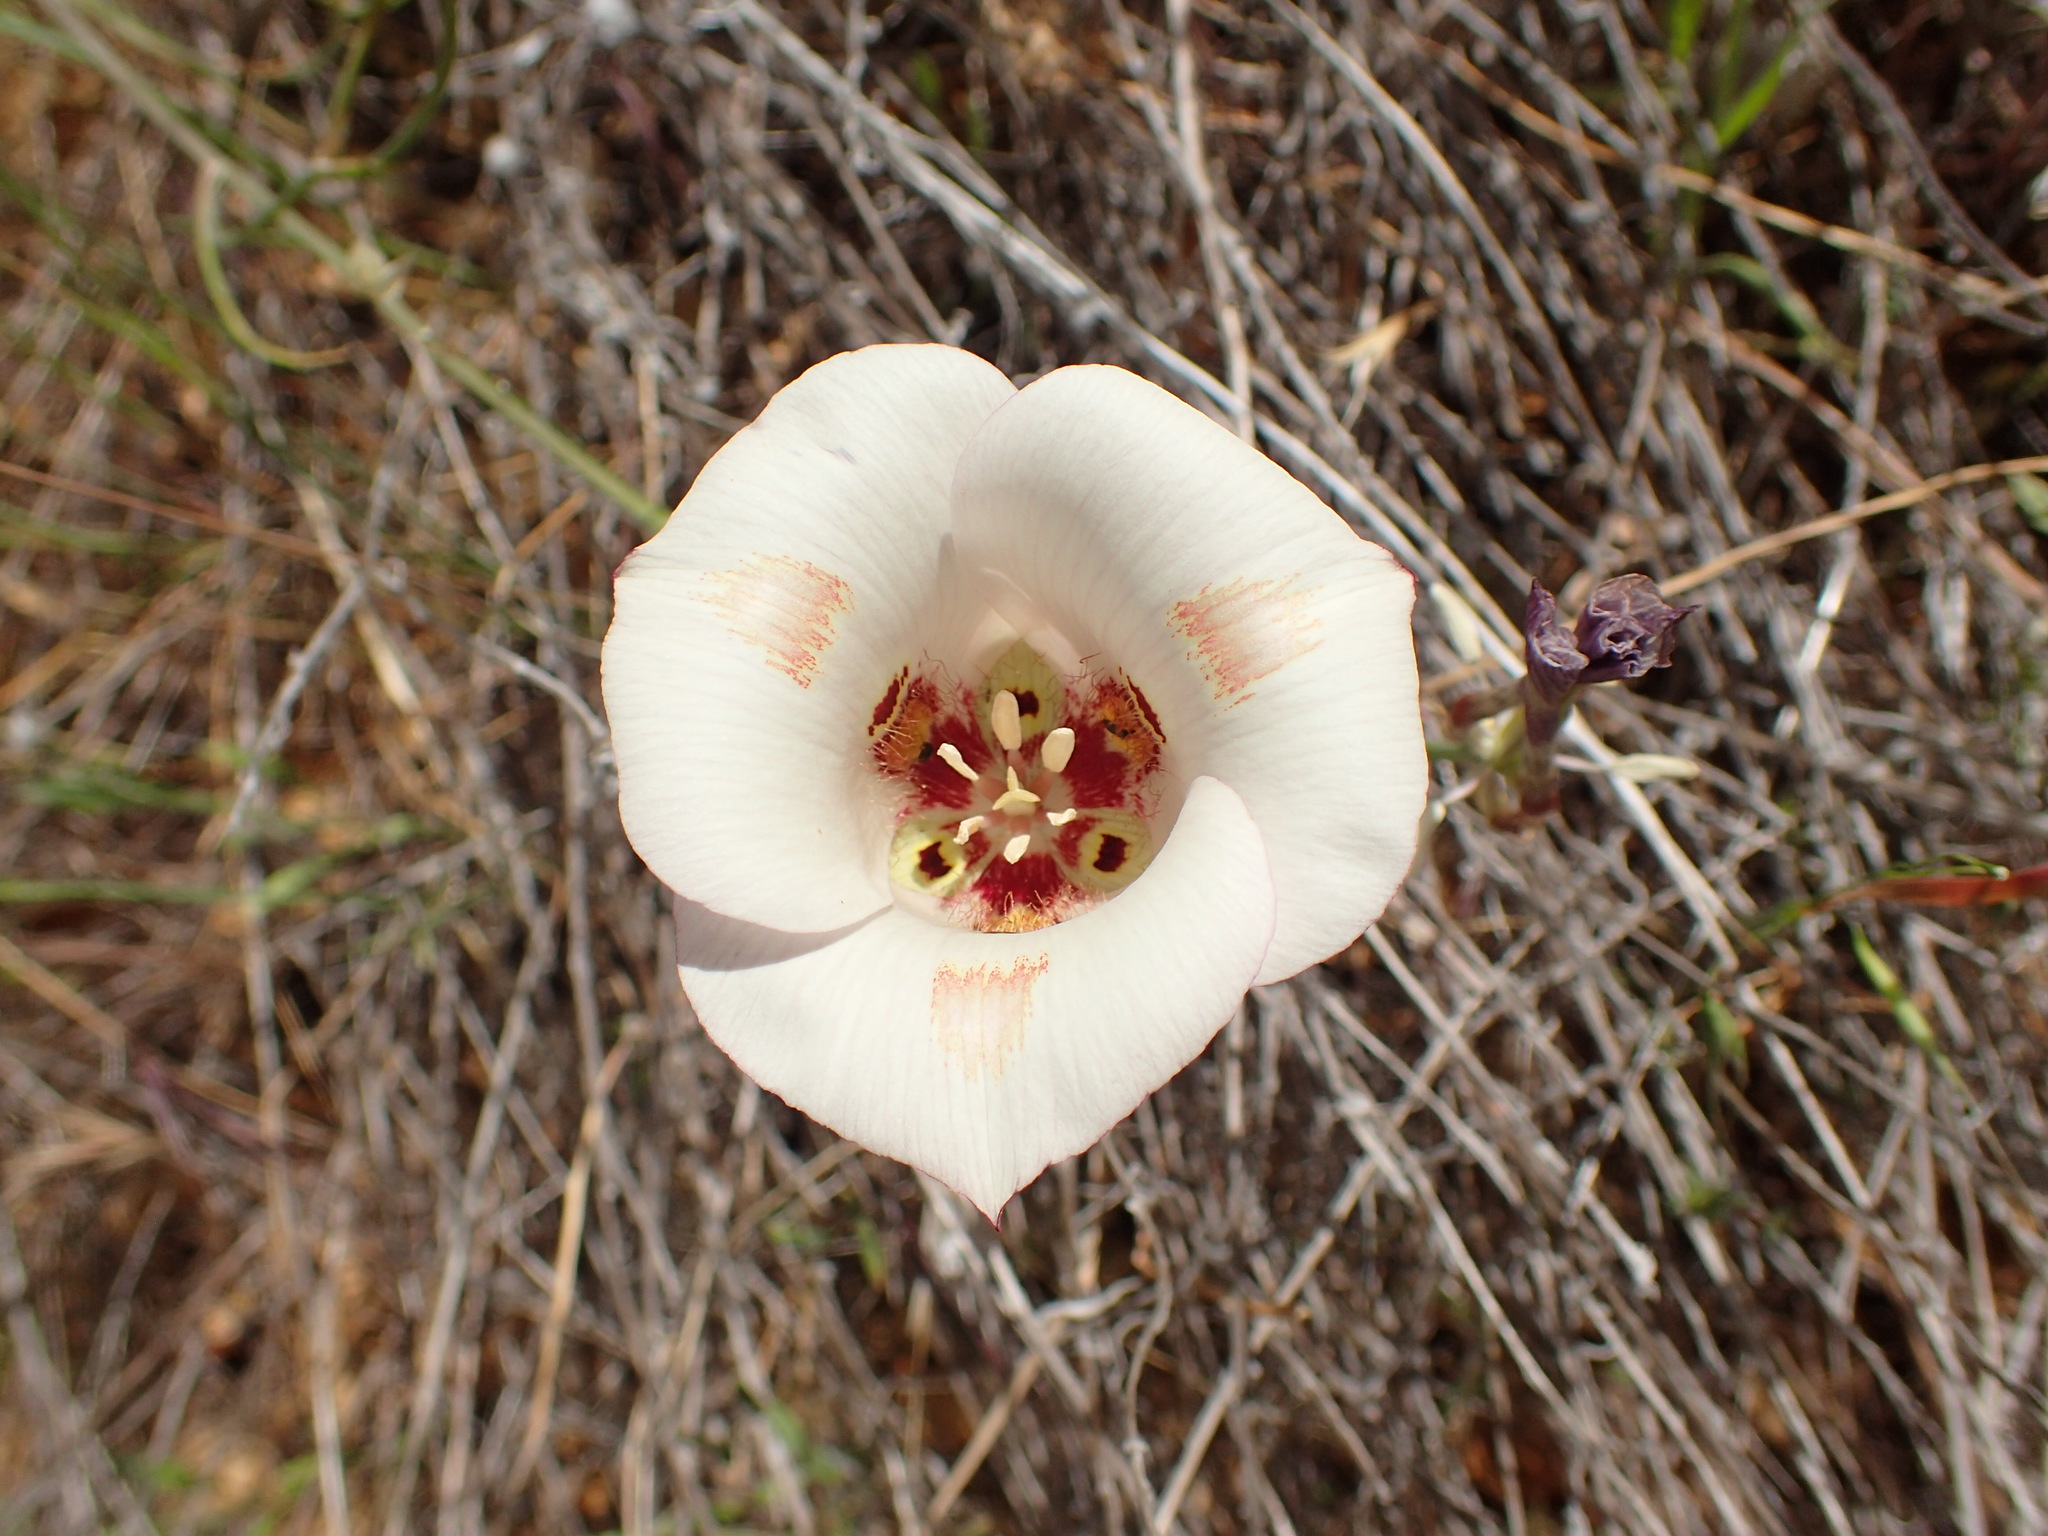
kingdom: Plantae
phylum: Tracheophyta
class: Liliopsida
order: Liliales
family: Liliaceae
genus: Calochortus
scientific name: Calochortus venustus
